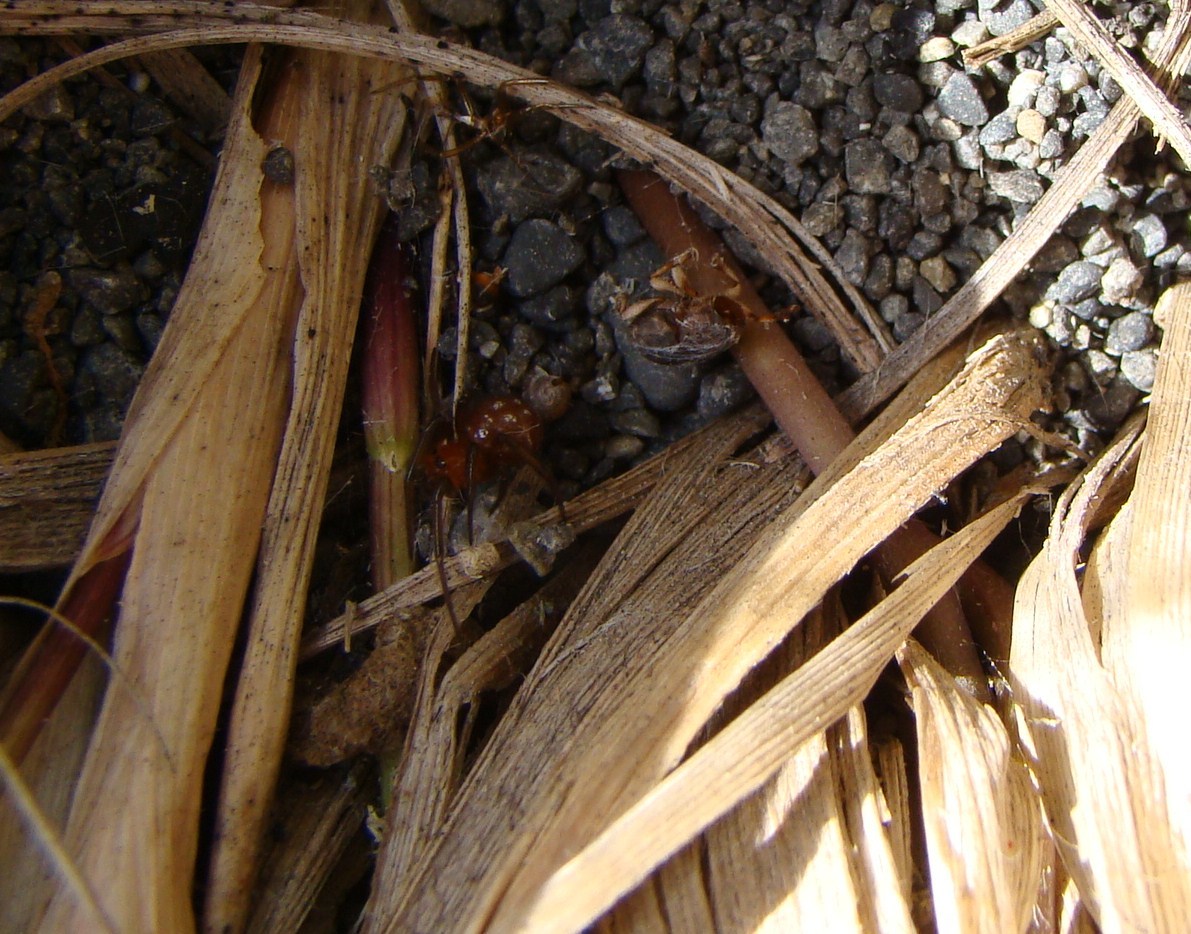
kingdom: Animalia
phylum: Arthropoda
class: Arachnida
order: Araneae
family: Theridiidae
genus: Steatoda
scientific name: Steatoda capensis
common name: Cobweb weaver
